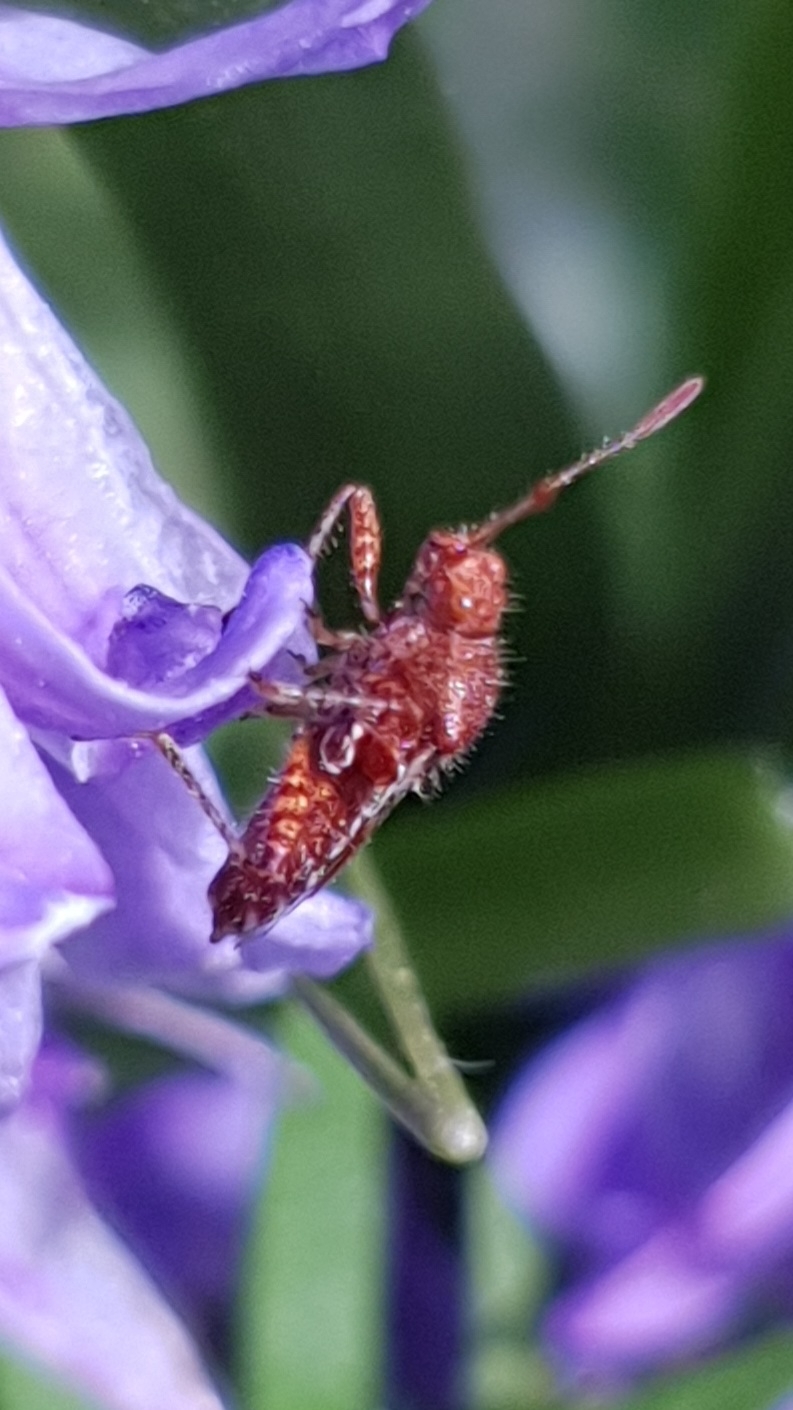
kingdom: Animalia
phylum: Arthropoda
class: Insecta
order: Hemiptera
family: Rhopalidae
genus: Rhopalus
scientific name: Rhopalus subrufus
